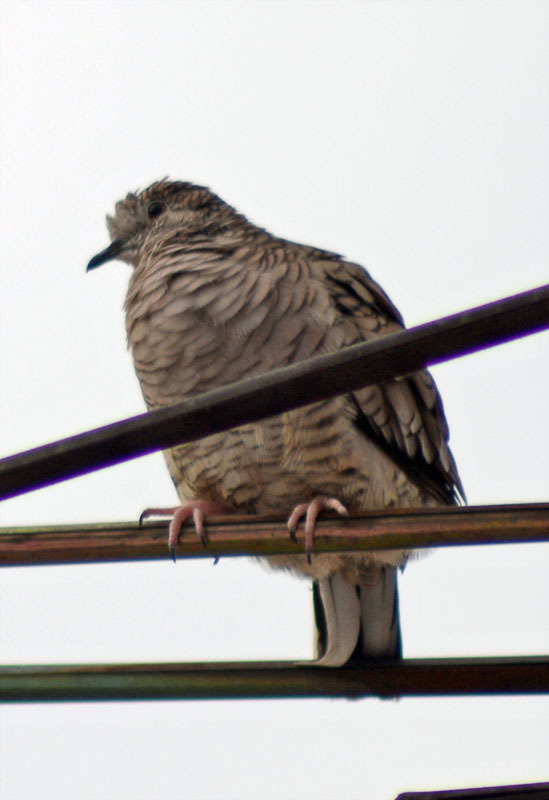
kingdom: Animalia
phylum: Chordata
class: Aves
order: Columbiformes
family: Columbidae
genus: Columbina
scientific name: Columbina inca
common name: Inca dove
